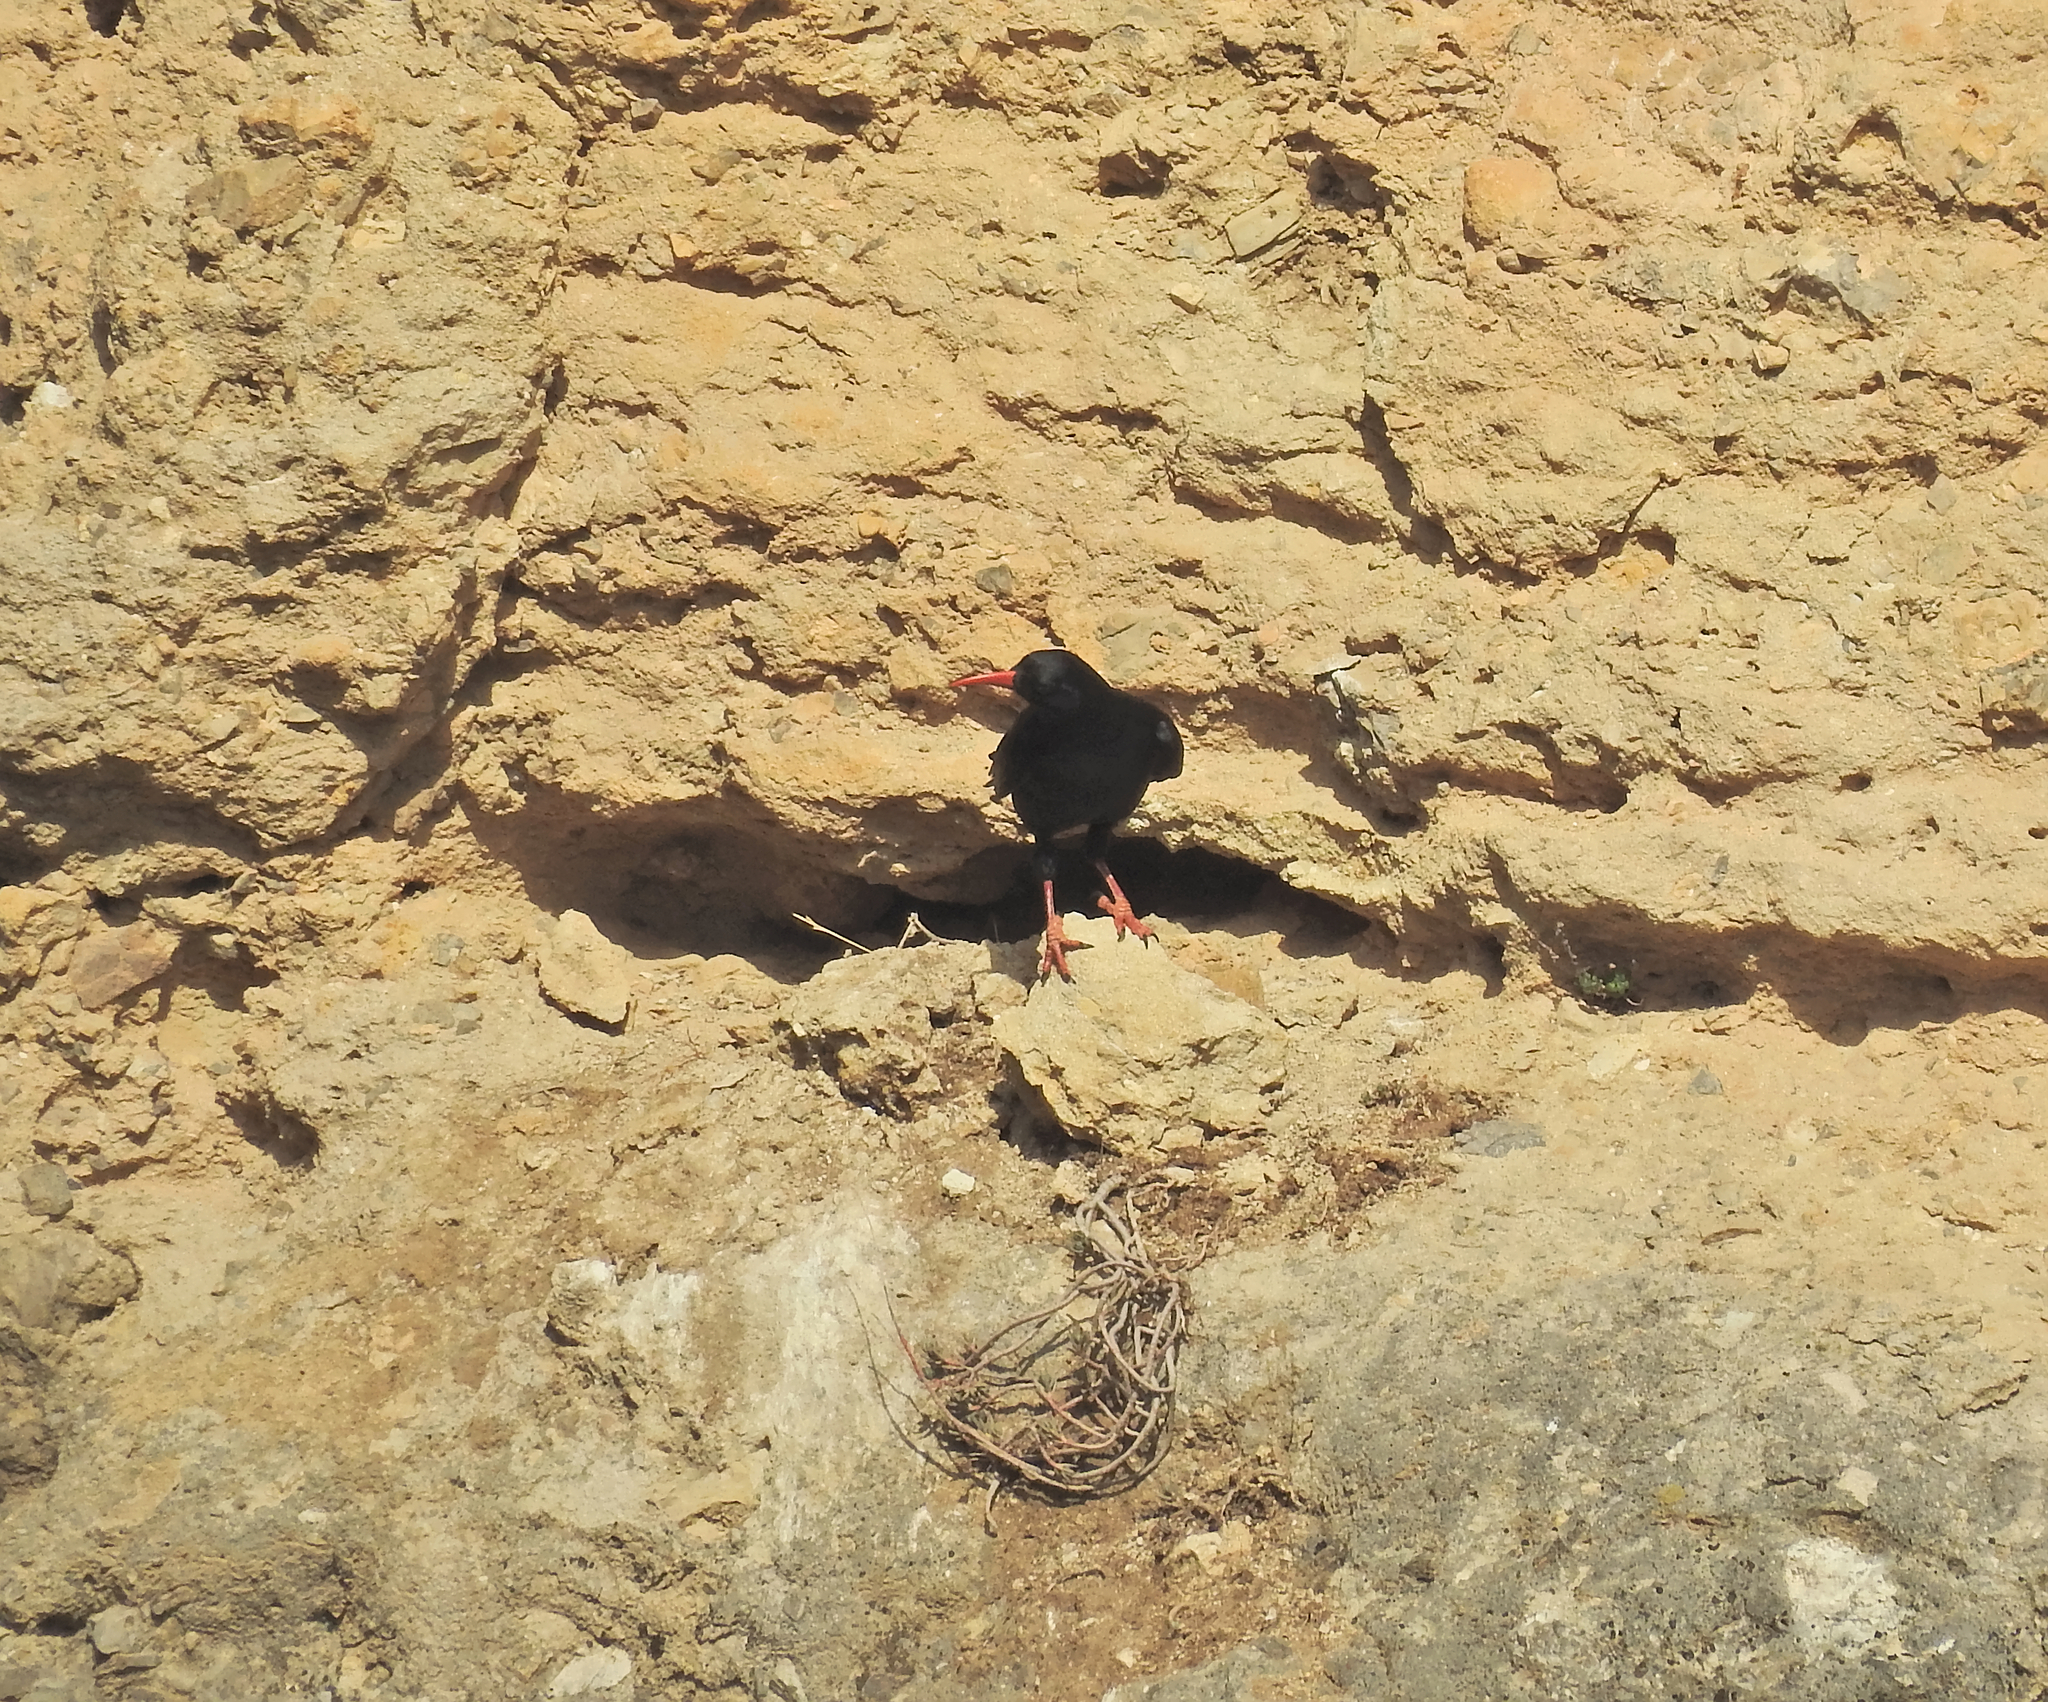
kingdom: Animalia
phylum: Chordata
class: Aves
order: Passeriformes
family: Corvidae
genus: Pyrrhocorax
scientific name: Pyrrhocorax pyrrhocorax
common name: Red-billed chough
